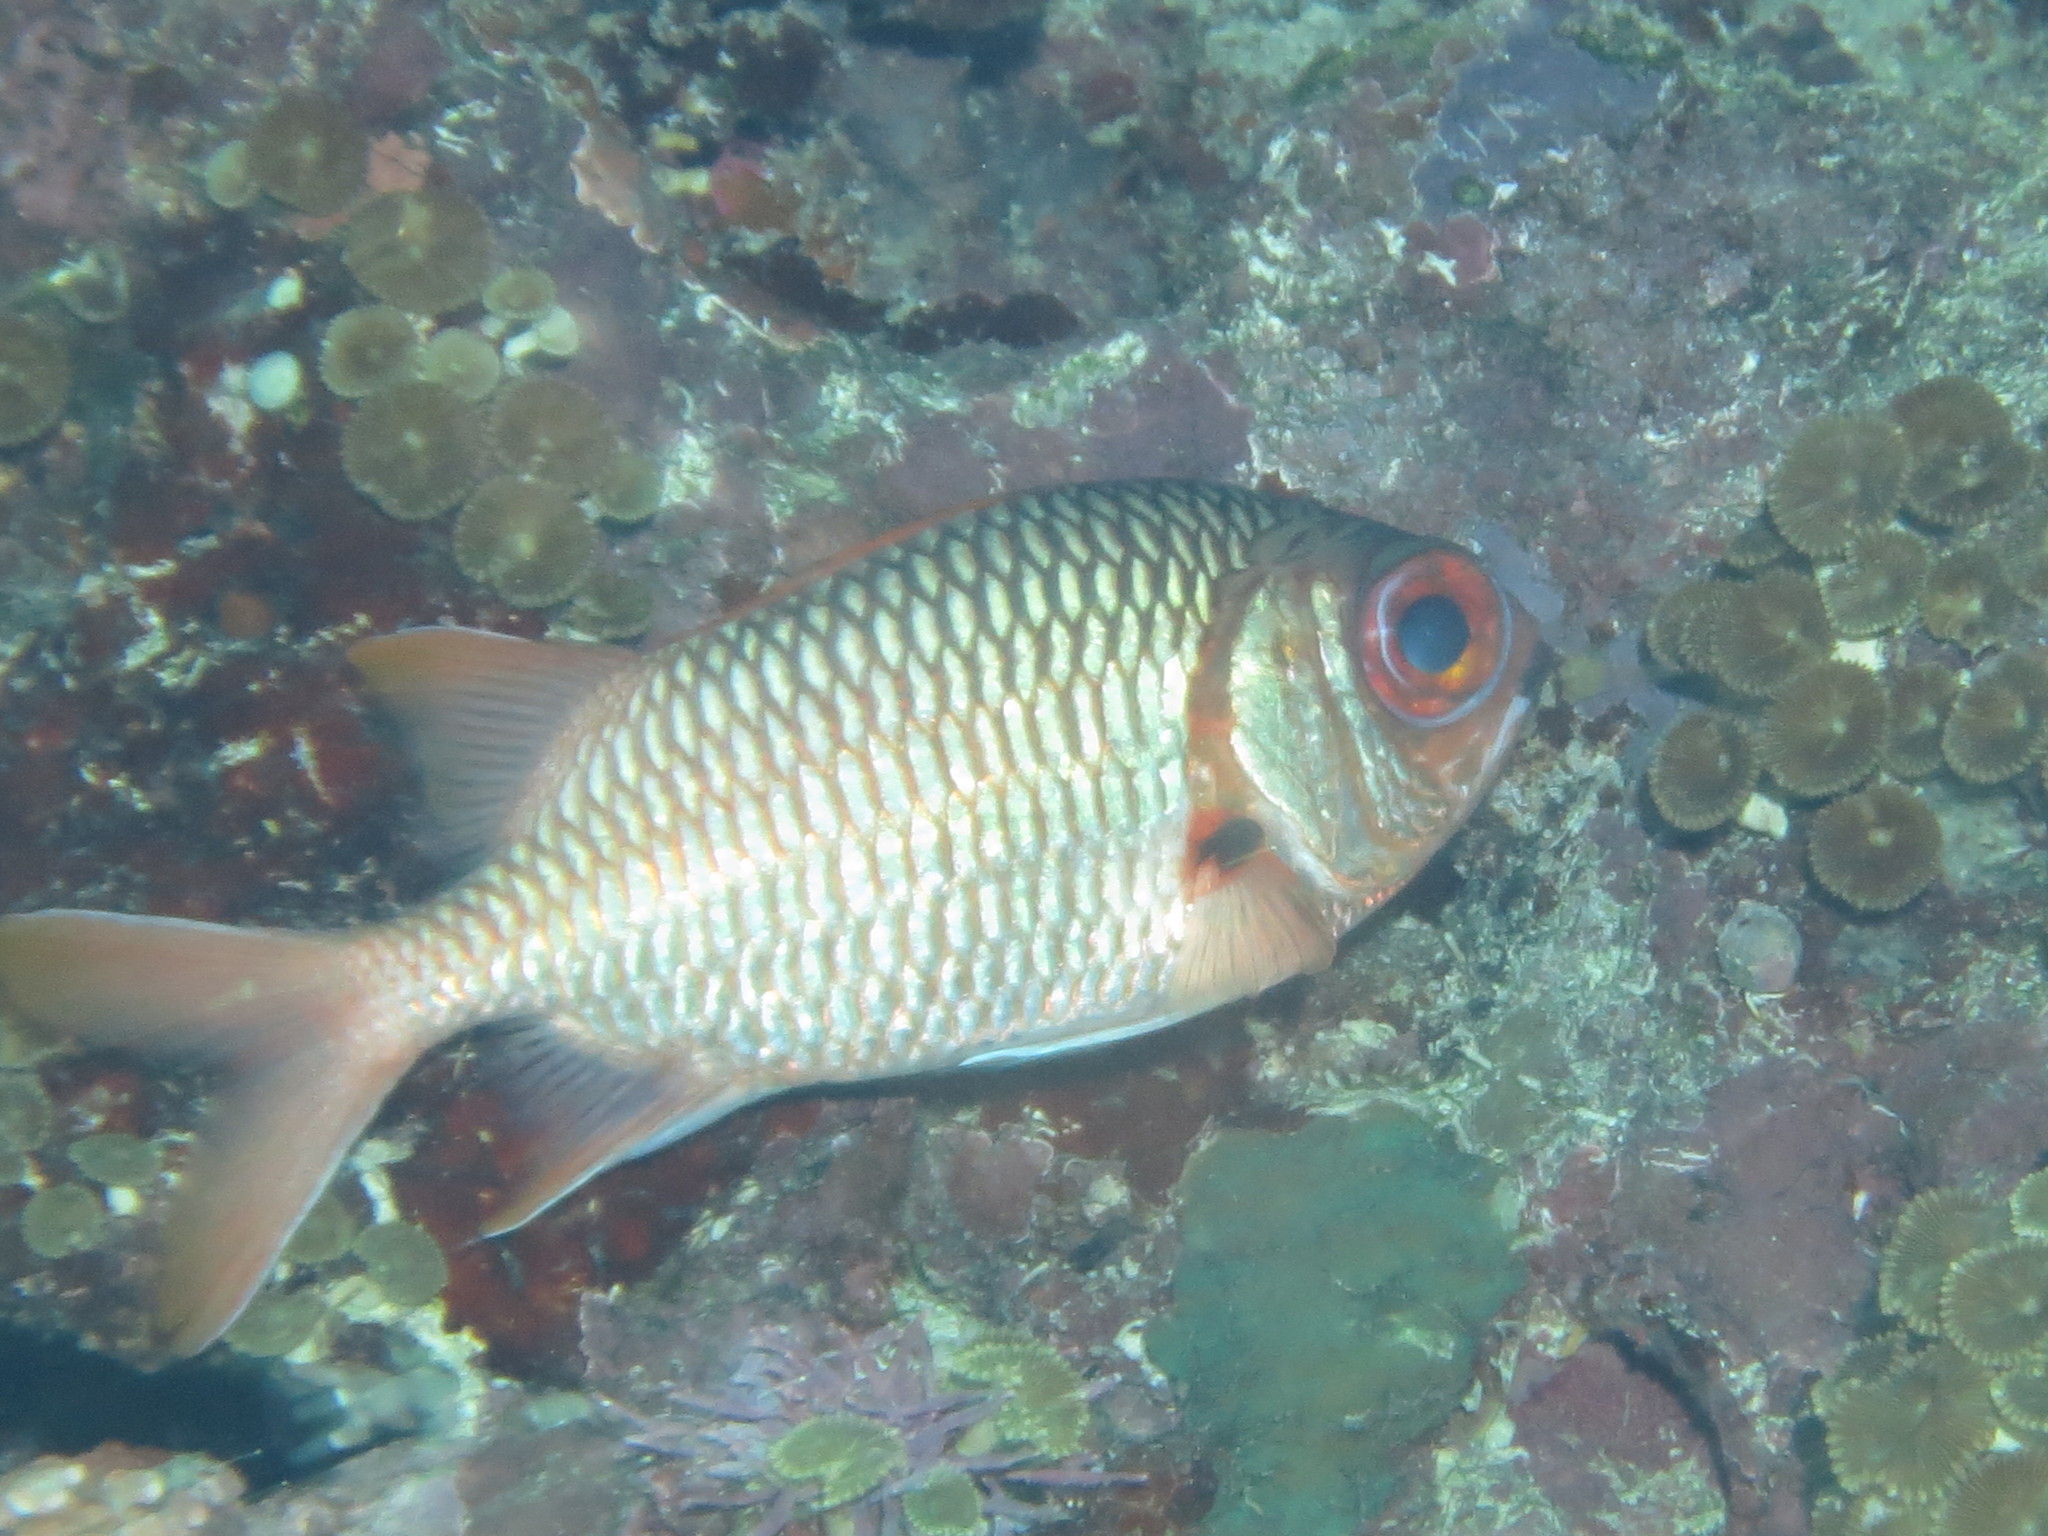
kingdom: Animalia
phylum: Chordata
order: Beryciformes
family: Holocentridae
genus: Myripristis
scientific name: Myripristis violacea
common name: Lattice soldierfish
